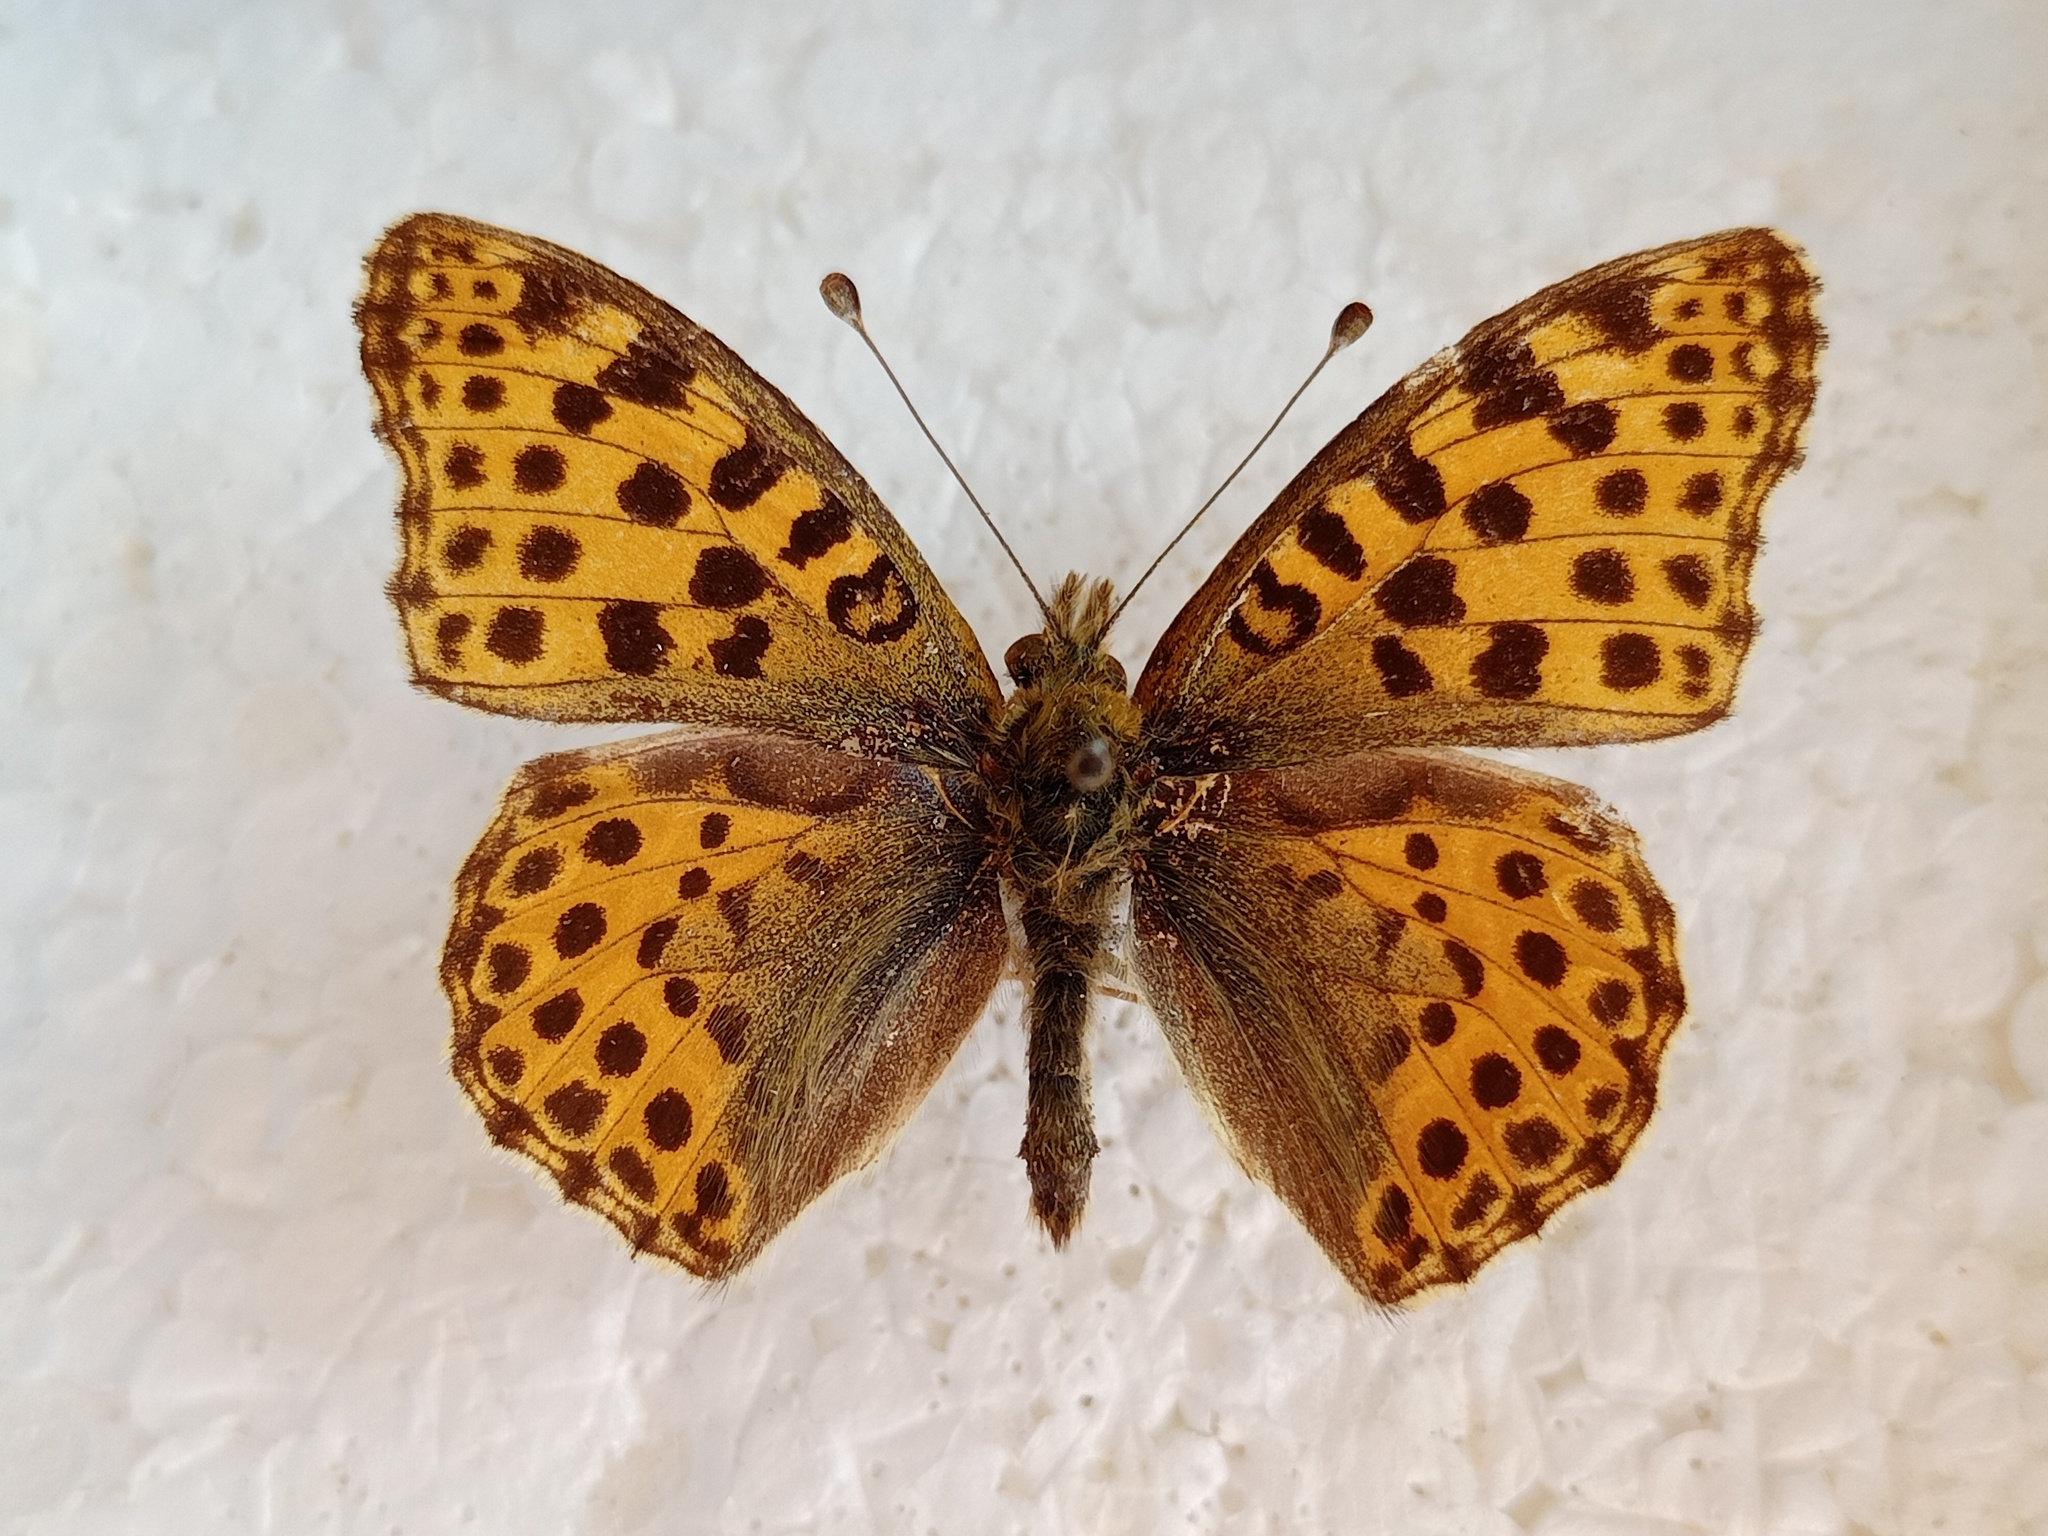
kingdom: Animalia
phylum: Arthropoda
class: Insecta
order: Lepidoptera
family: Nymphalidae
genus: Issoria
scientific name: Issoria lathonia
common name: Queen of spain fritillary
